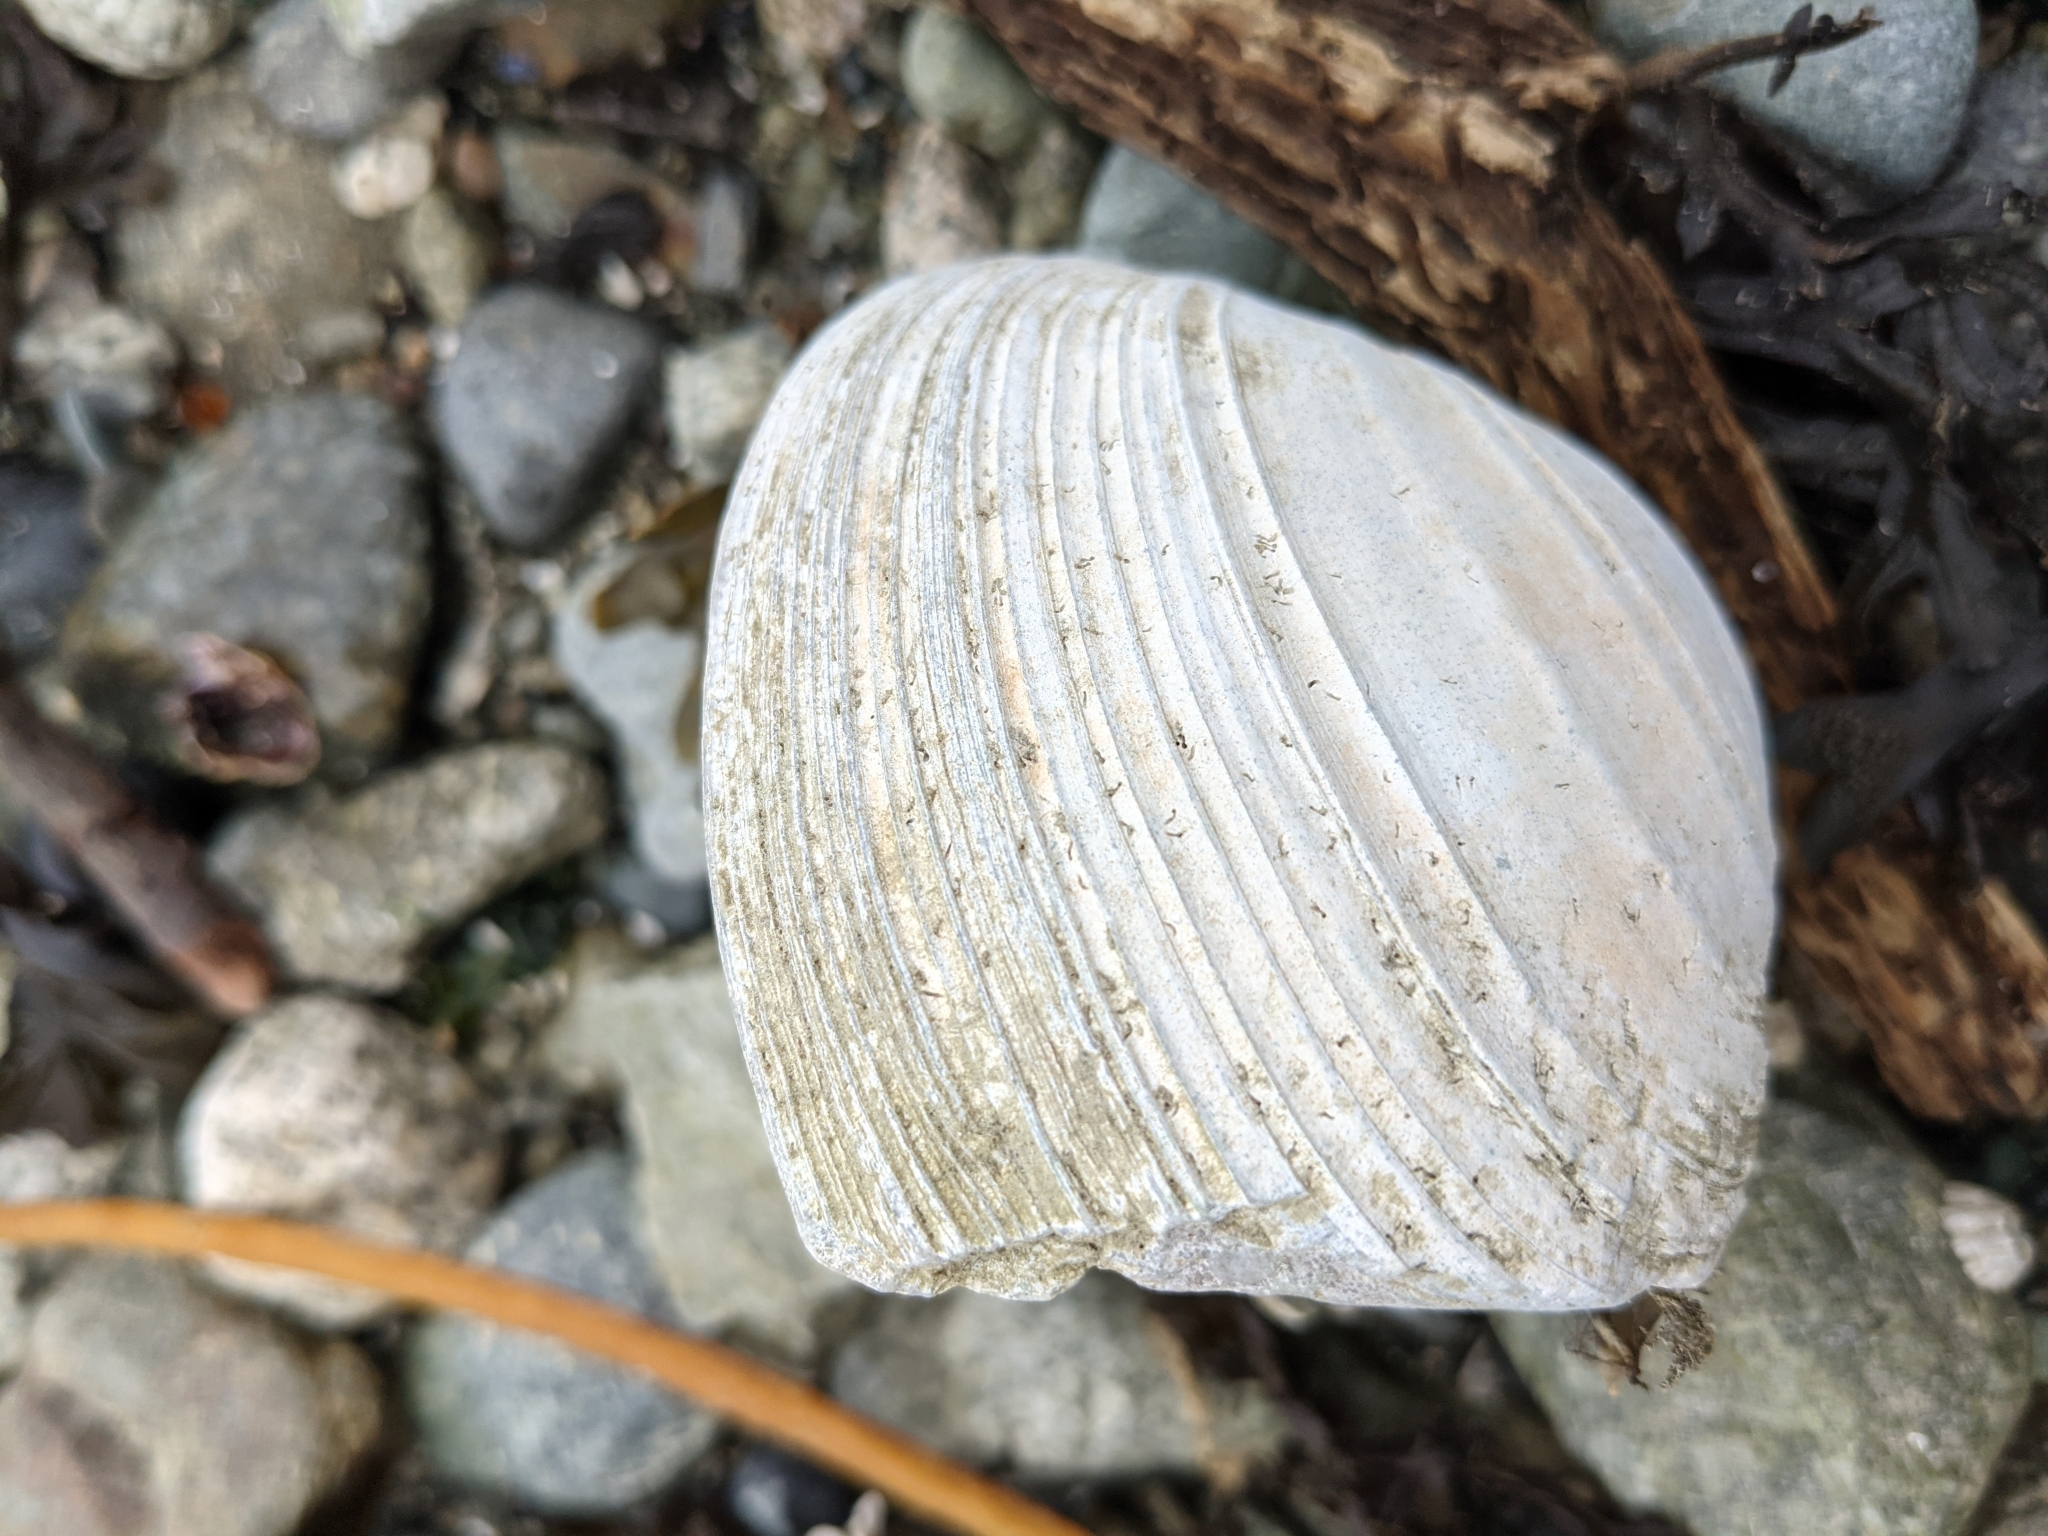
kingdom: Animalia
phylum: Mollusca
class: Bivalvia
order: Venerida
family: Veneridae
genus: Saxidomus
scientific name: Saxidomus gigantea
